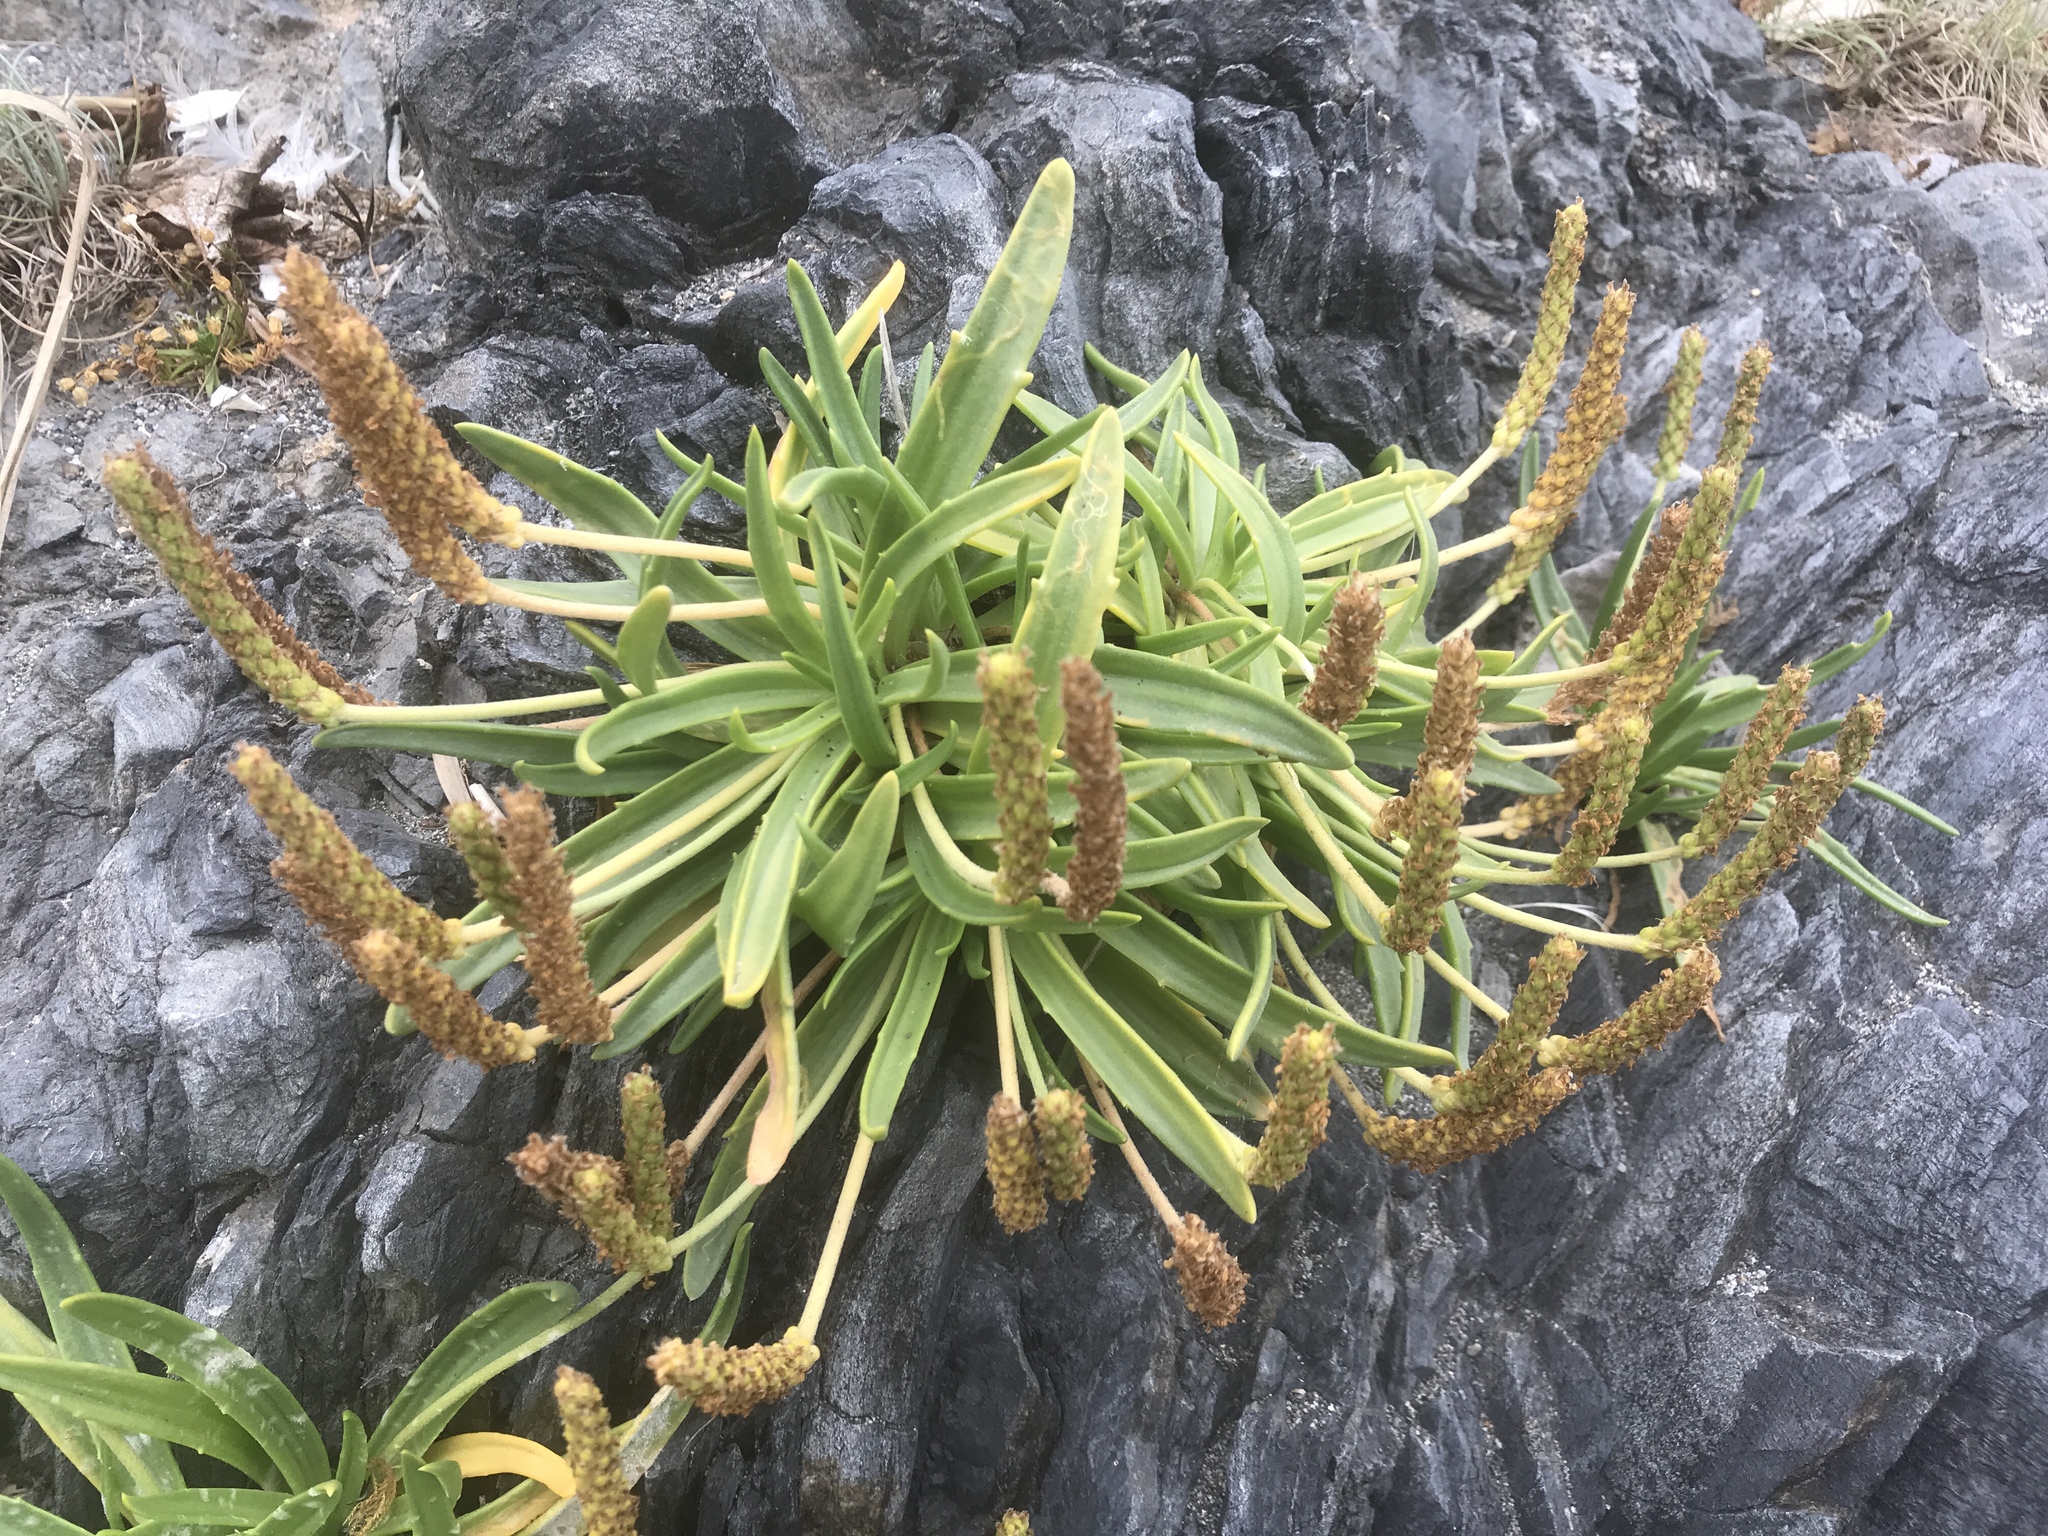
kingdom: Plantae
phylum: Tracheophyta
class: Magnoliopsida
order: Lamiales
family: Plantaginaceae
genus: Plantago
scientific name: Plantago maritima
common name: Sea plantain
